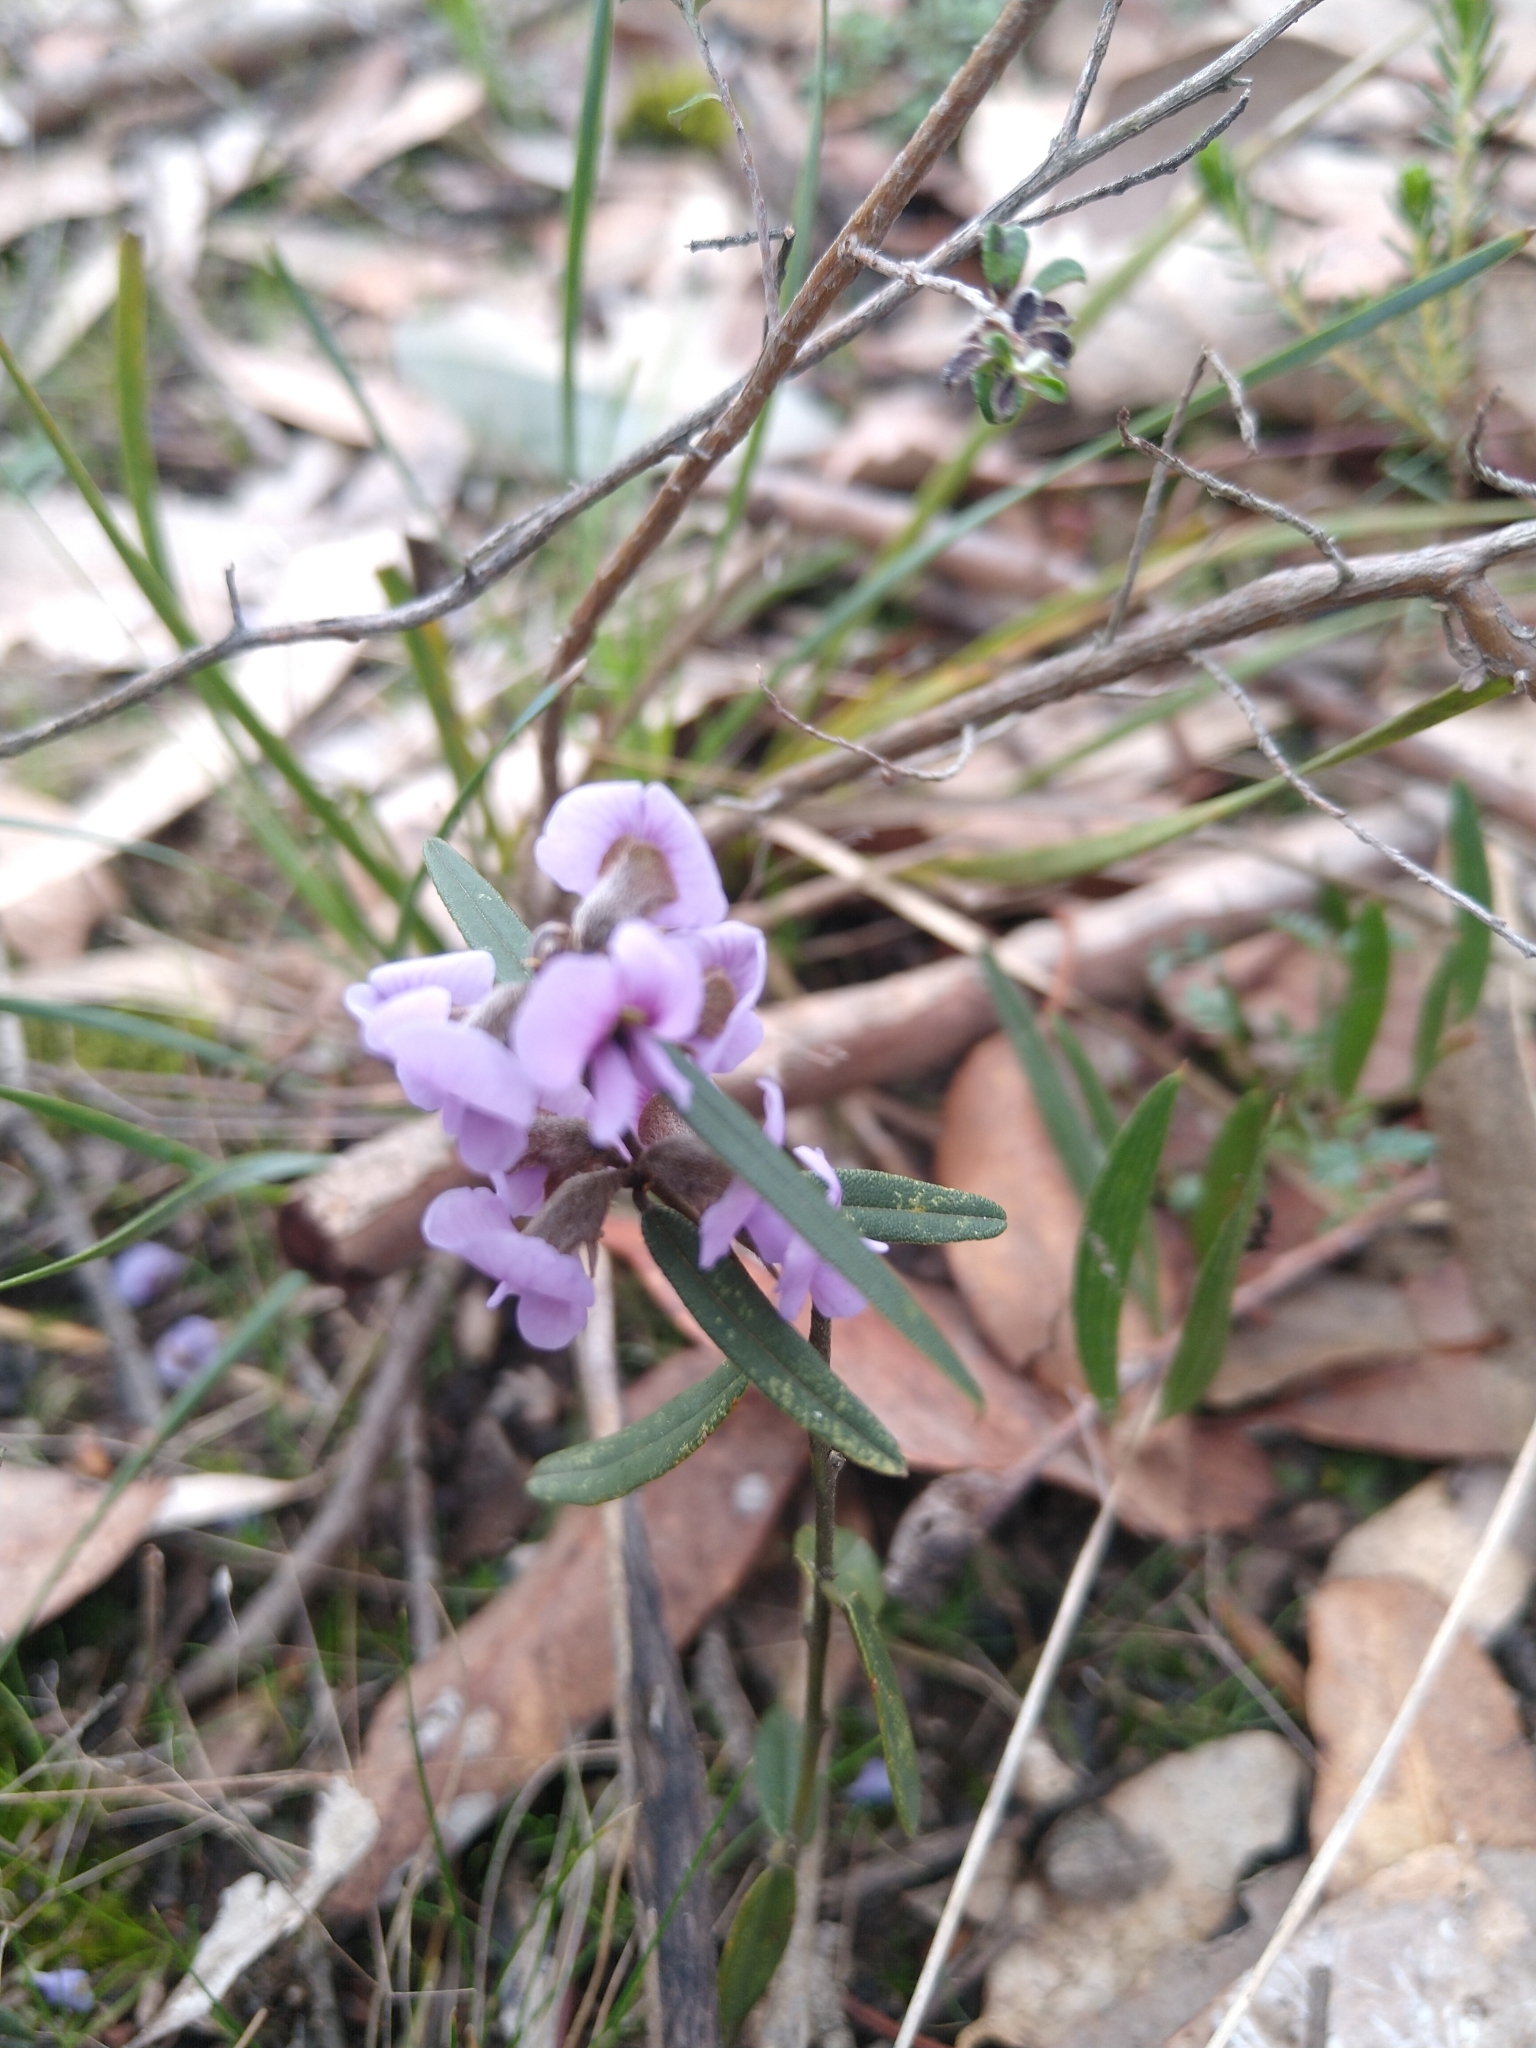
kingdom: Plantae
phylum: Tracheophyta
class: Magnoliopsida
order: Fabales
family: Fabaceae
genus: Hovea
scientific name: Hovea heterophylla
